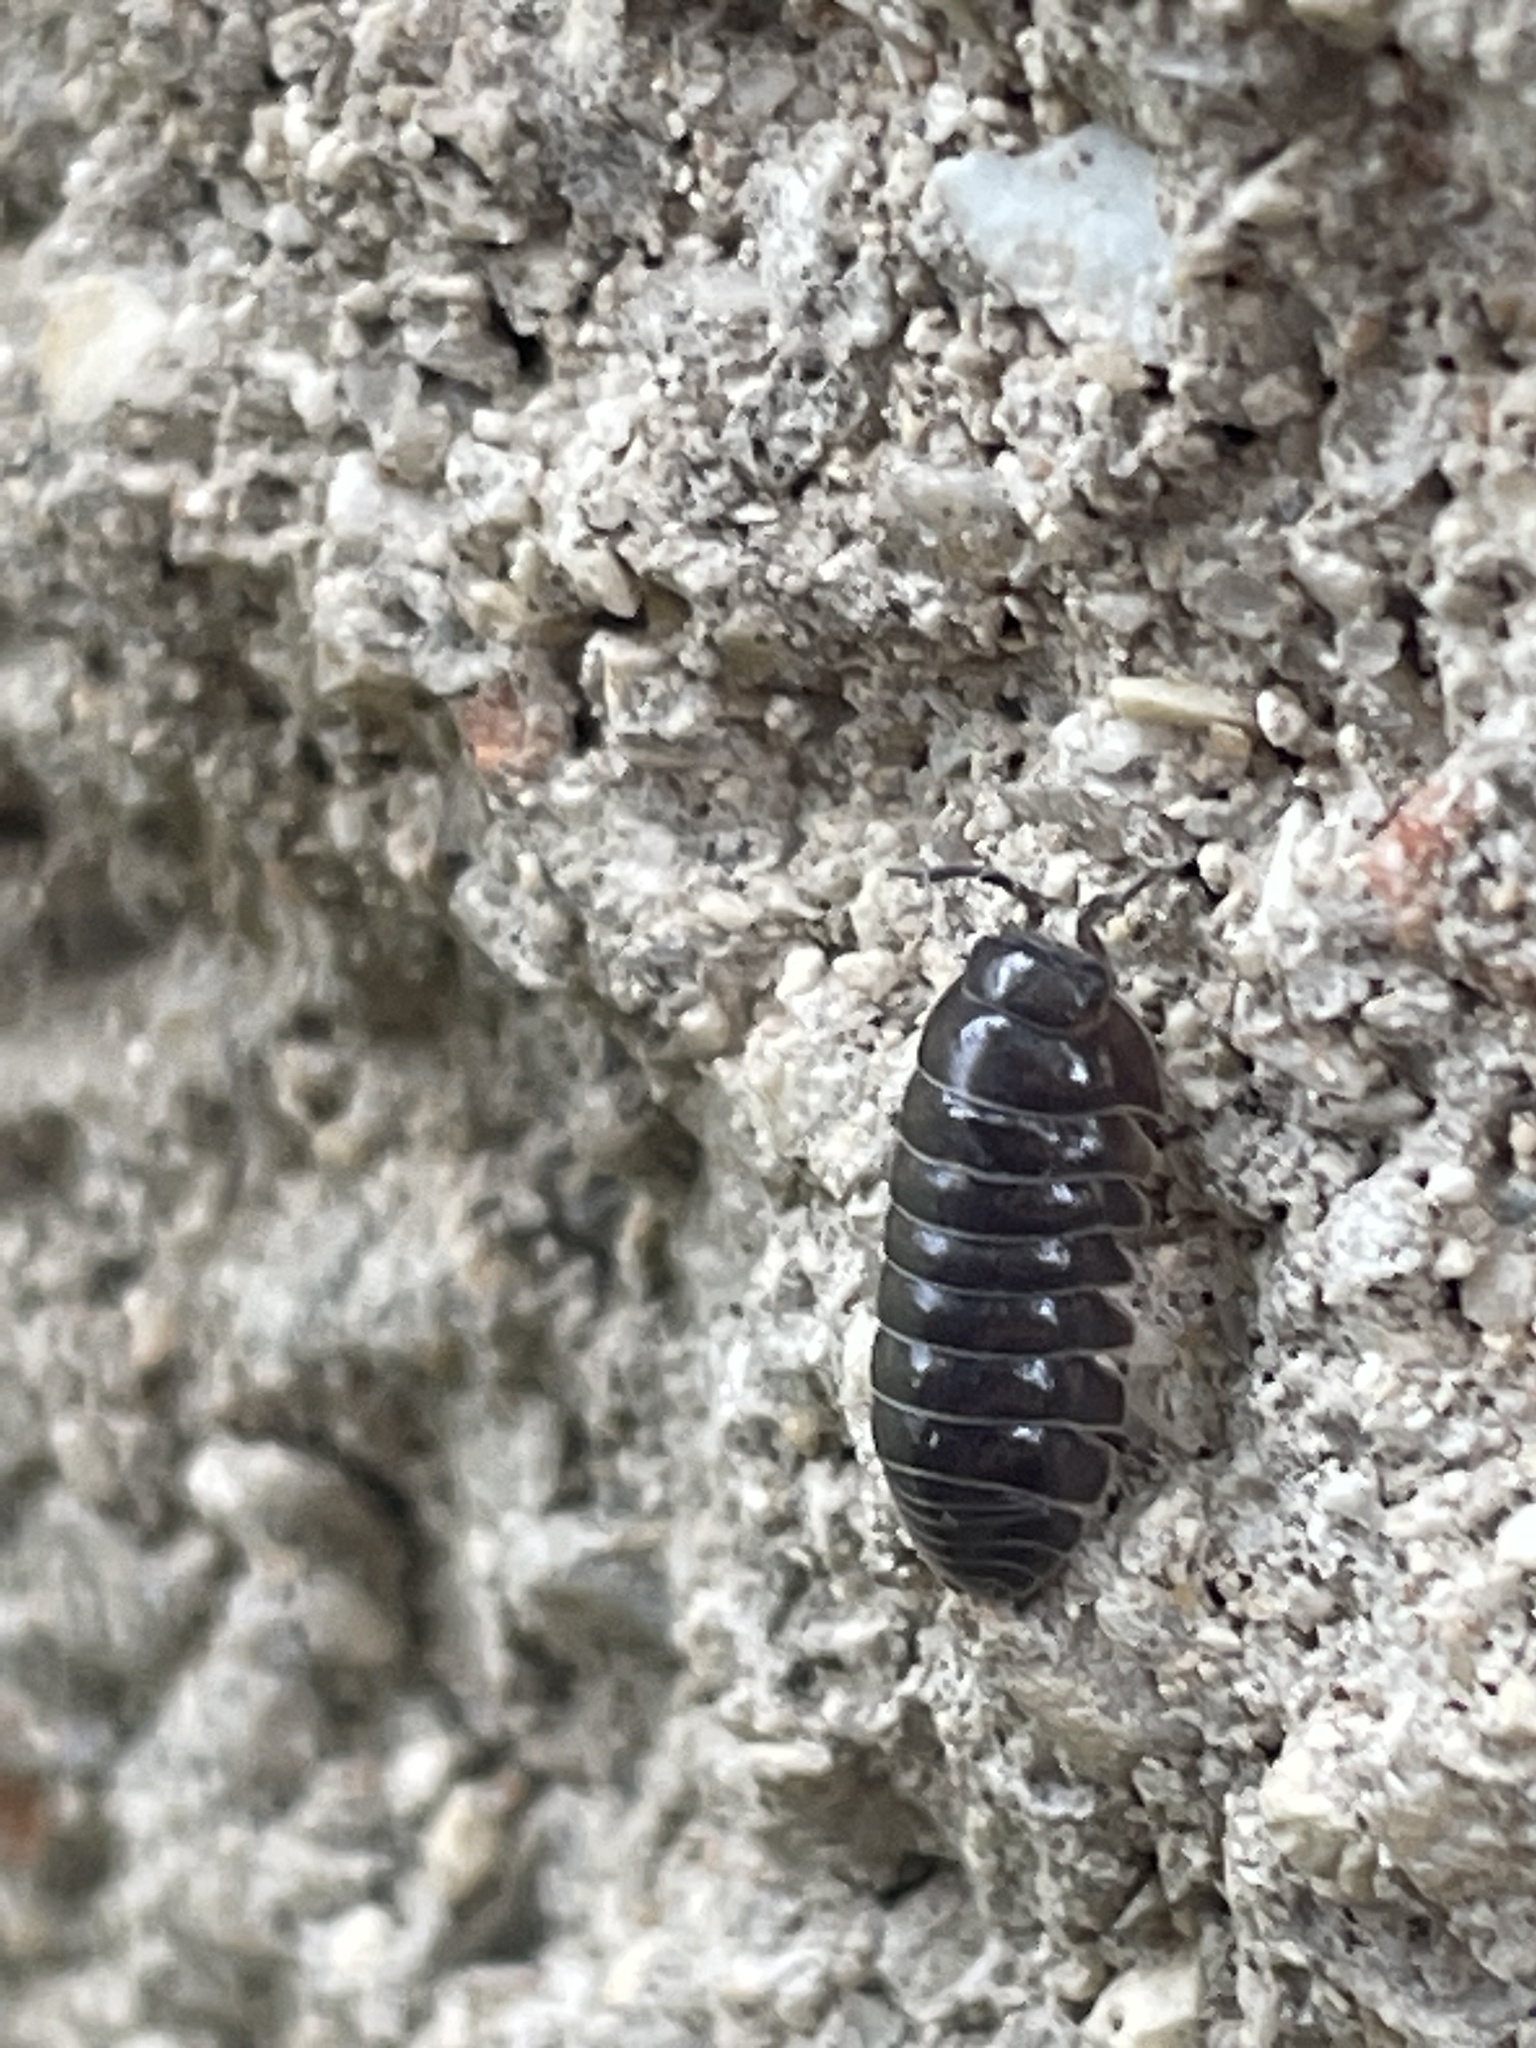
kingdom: Animalia
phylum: Arthropoda
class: Malacostraca
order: Isopoda
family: Armadillidiidae
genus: Armadillidium
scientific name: Armadillidium vulgare
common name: Common pill woodlouse
